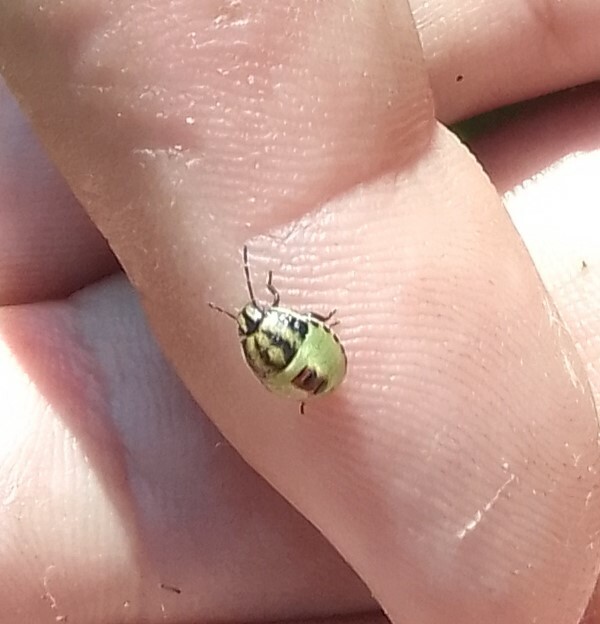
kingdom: Animalia
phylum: Arthropoda
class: Insecta
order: Hemiptera
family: Pentatomidae
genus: Piezodorus
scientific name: Piezodorus lituratus
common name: Stink bug
